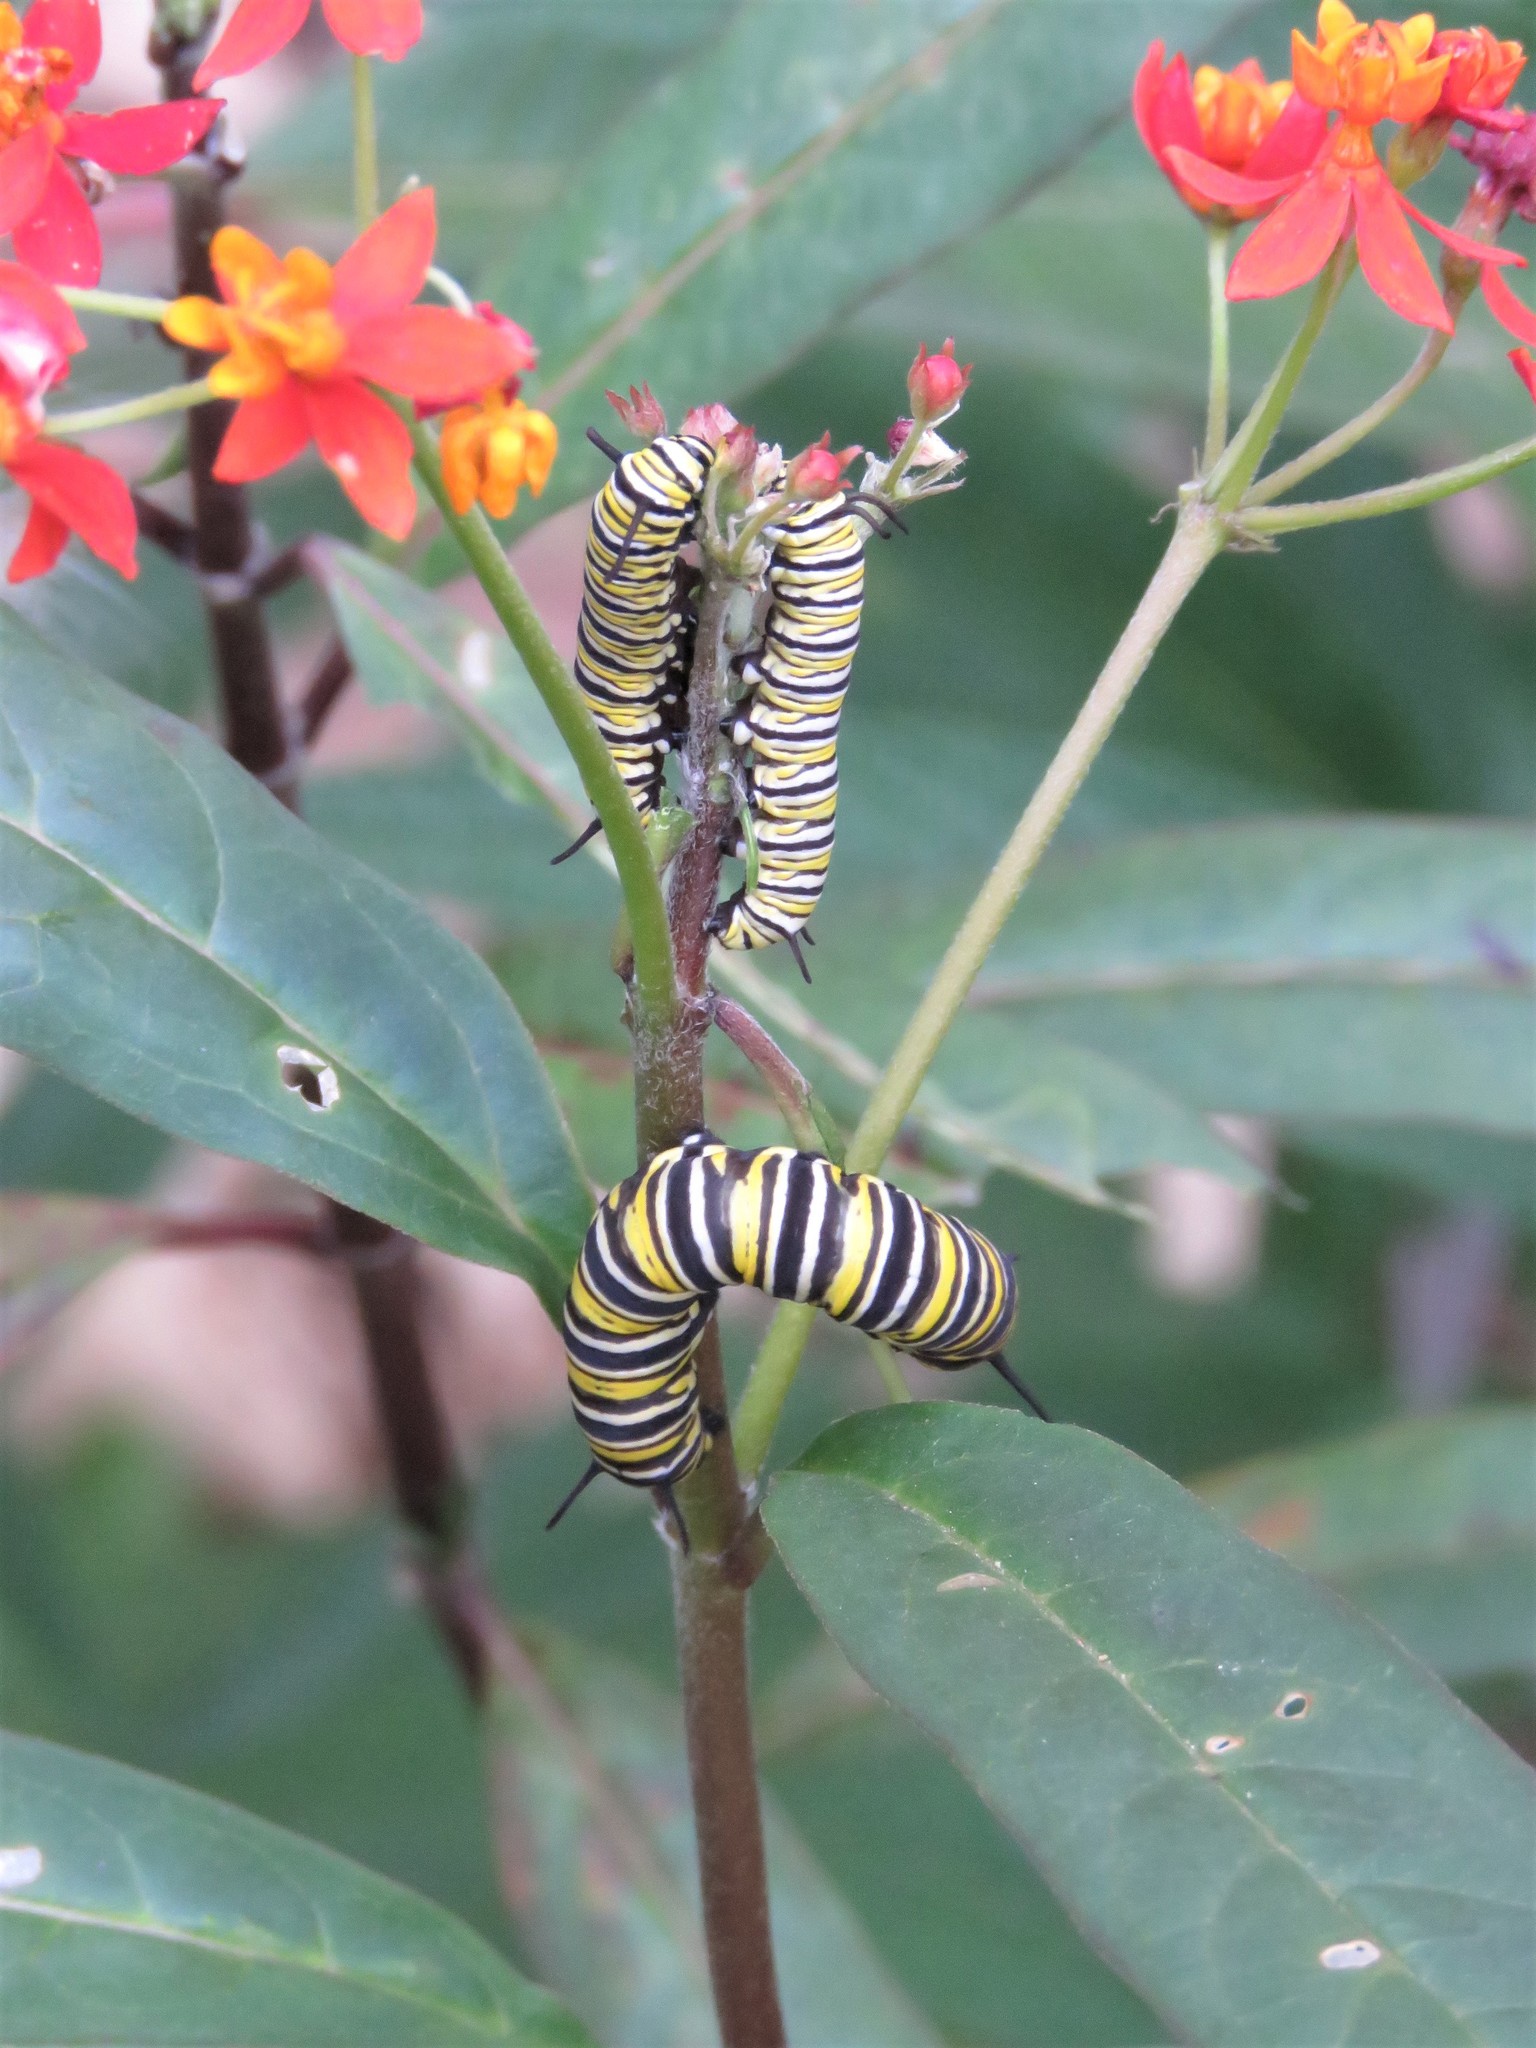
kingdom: Animalia
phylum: Arthropoda
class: Insecta
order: Lepidoptera
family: Nymphalidae
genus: Danaus
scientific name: Danaus plexippus
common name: Monarch
